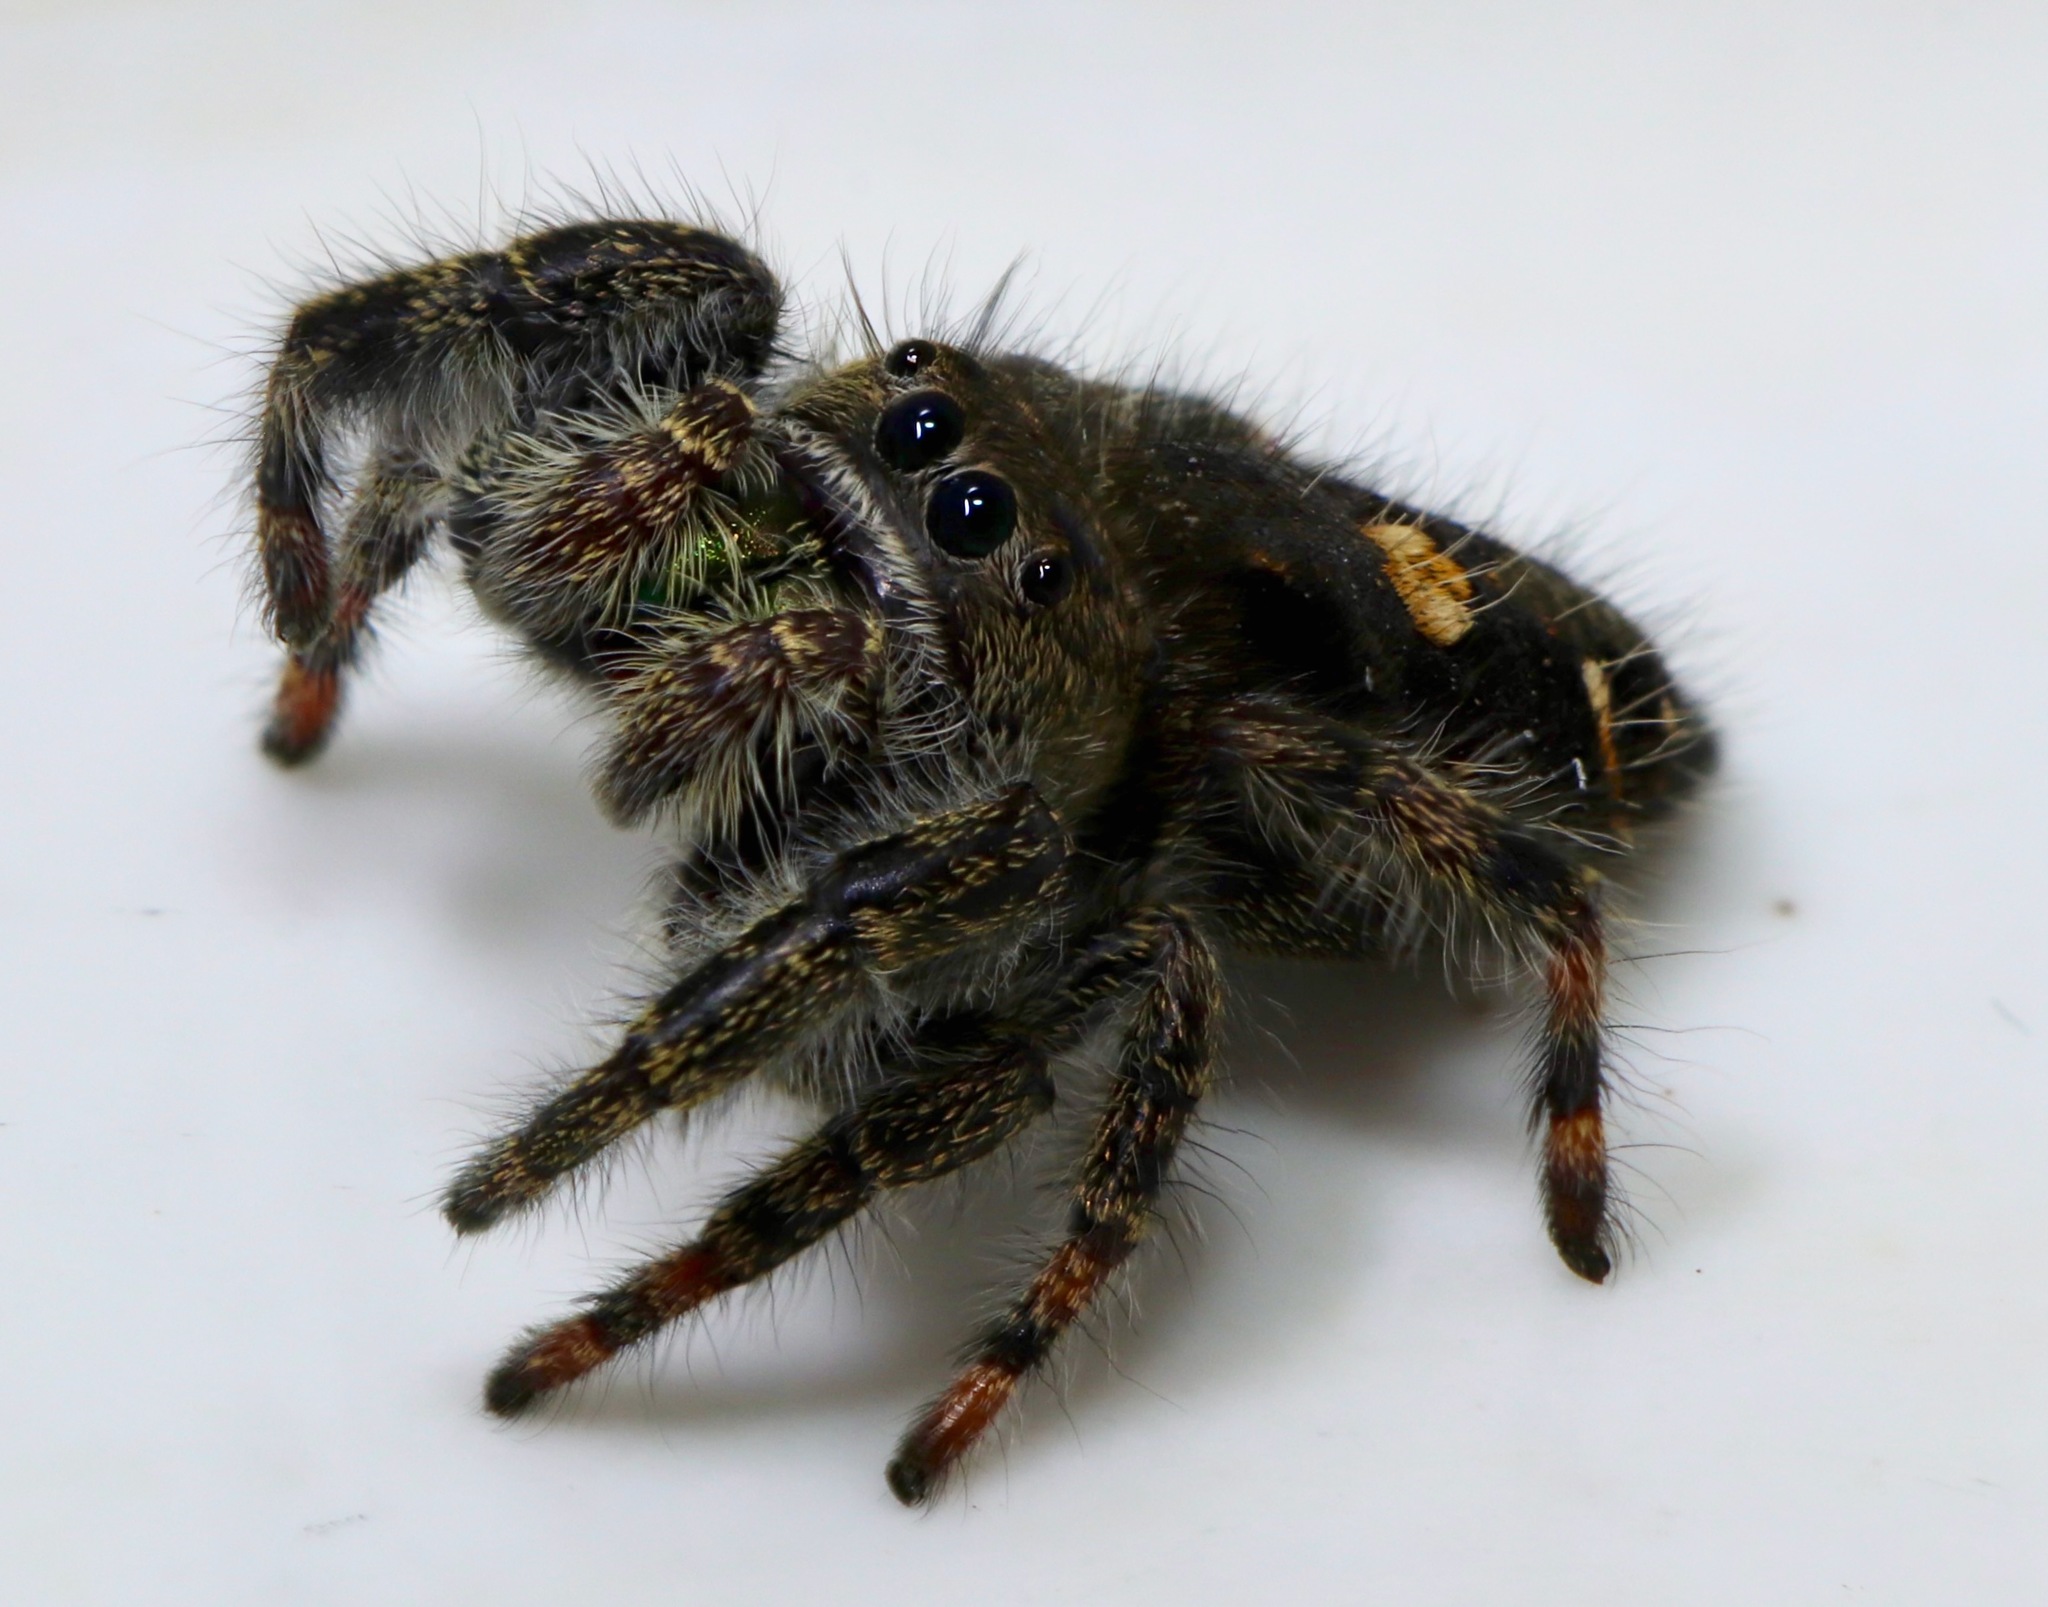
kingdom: Animalia
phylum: Arthropoda
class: Arachnida
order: Araneae
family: Salticidae
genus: Phidippus
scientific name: Phidippus audax
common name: Bold jumper
